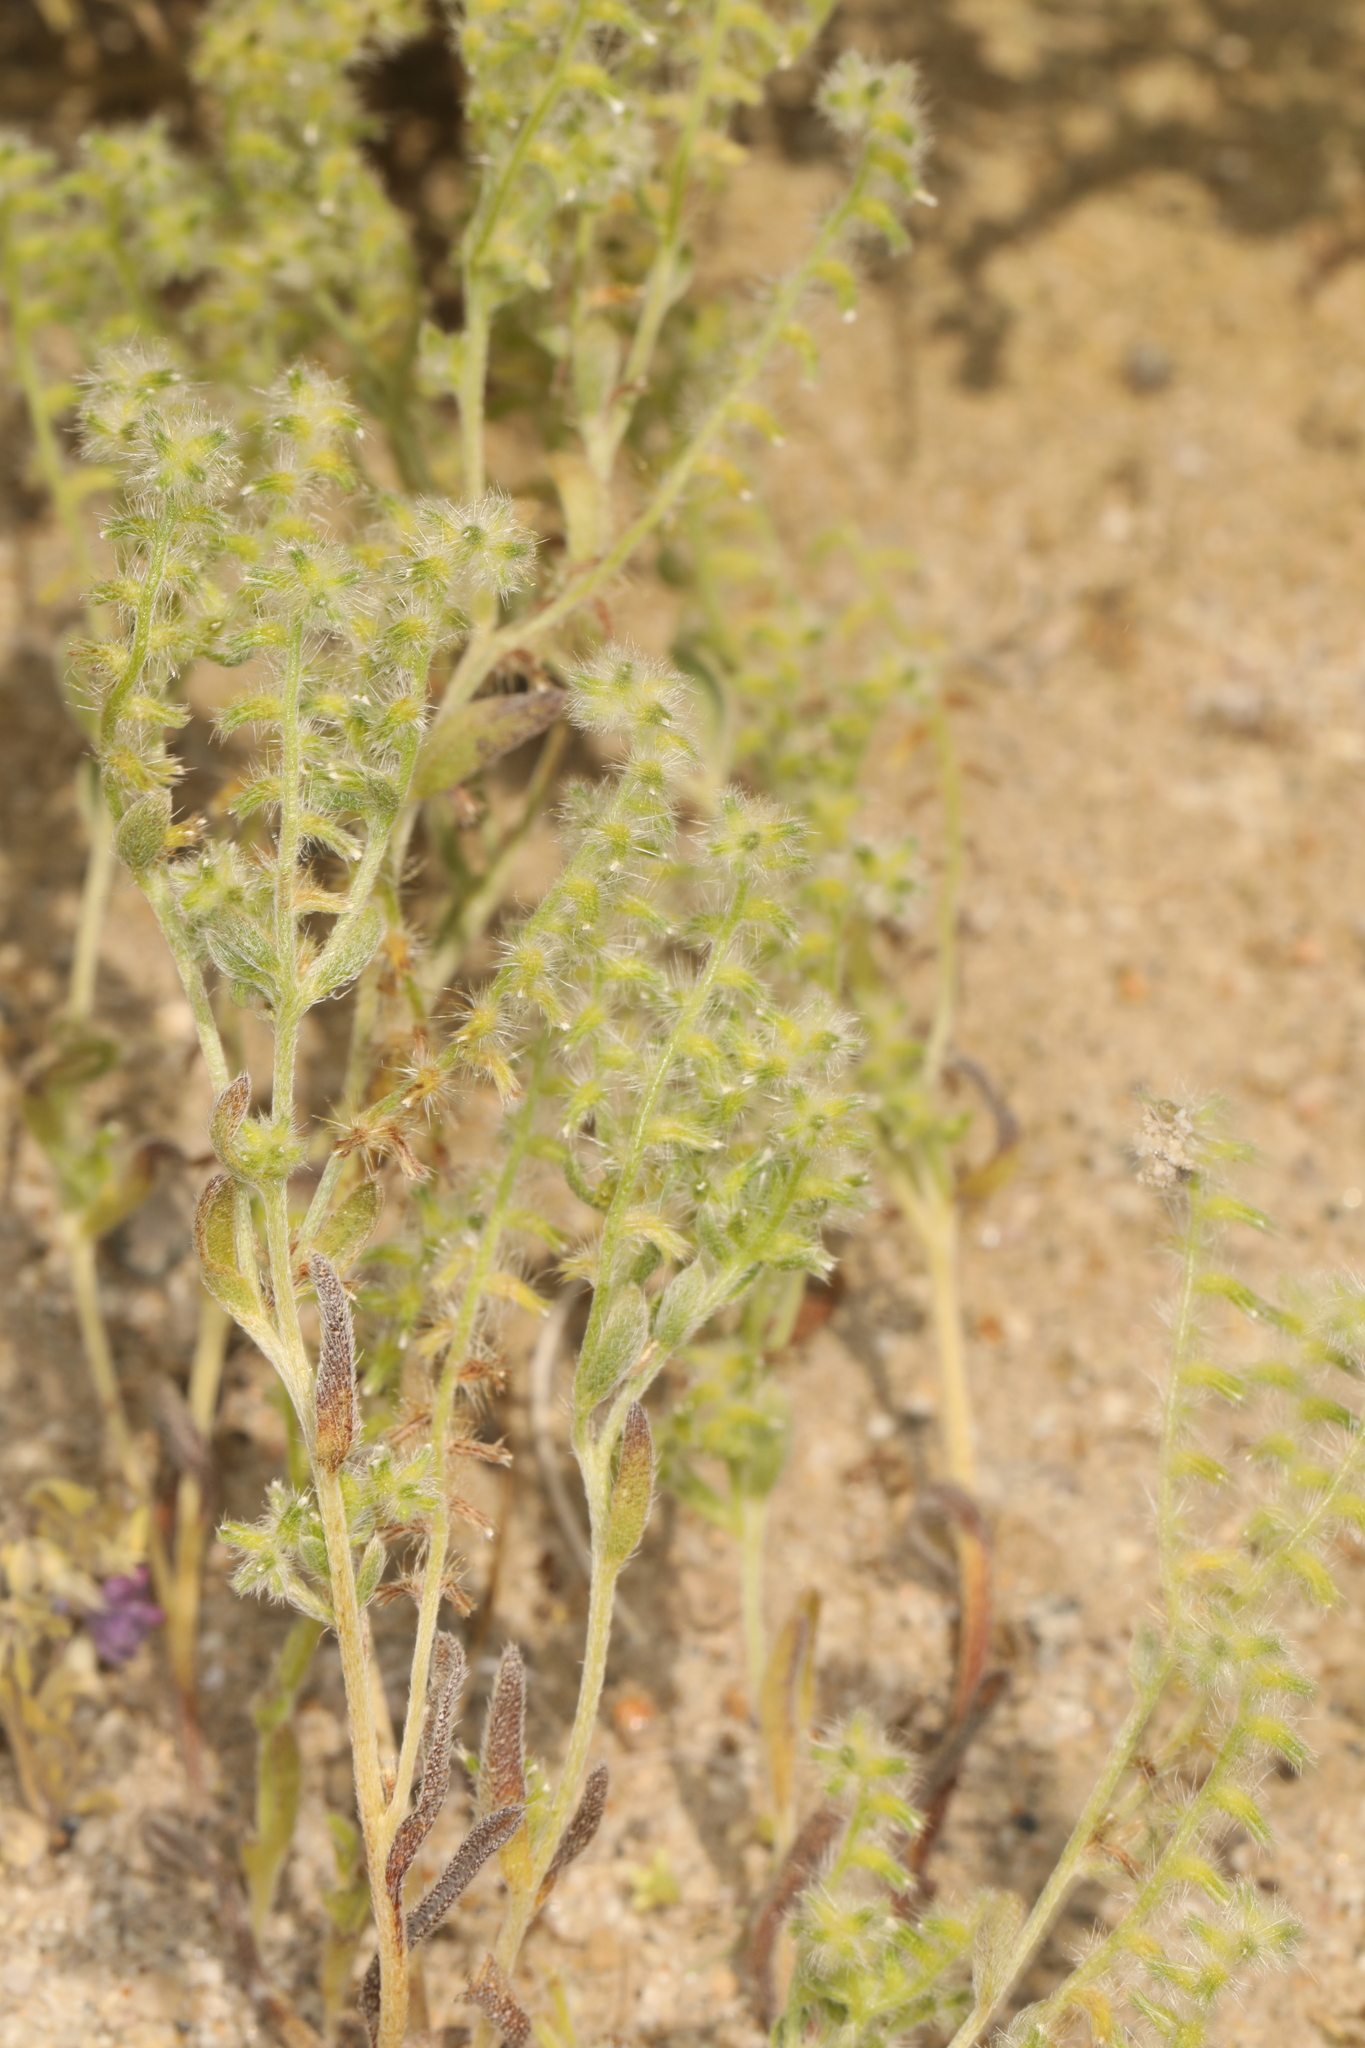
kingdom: Plantae
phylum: Tracheophyta
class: Magnoliopsida
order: Boraginales
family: Boraginaceae
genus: Cryptantha
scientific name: Cryptantha recurvata
